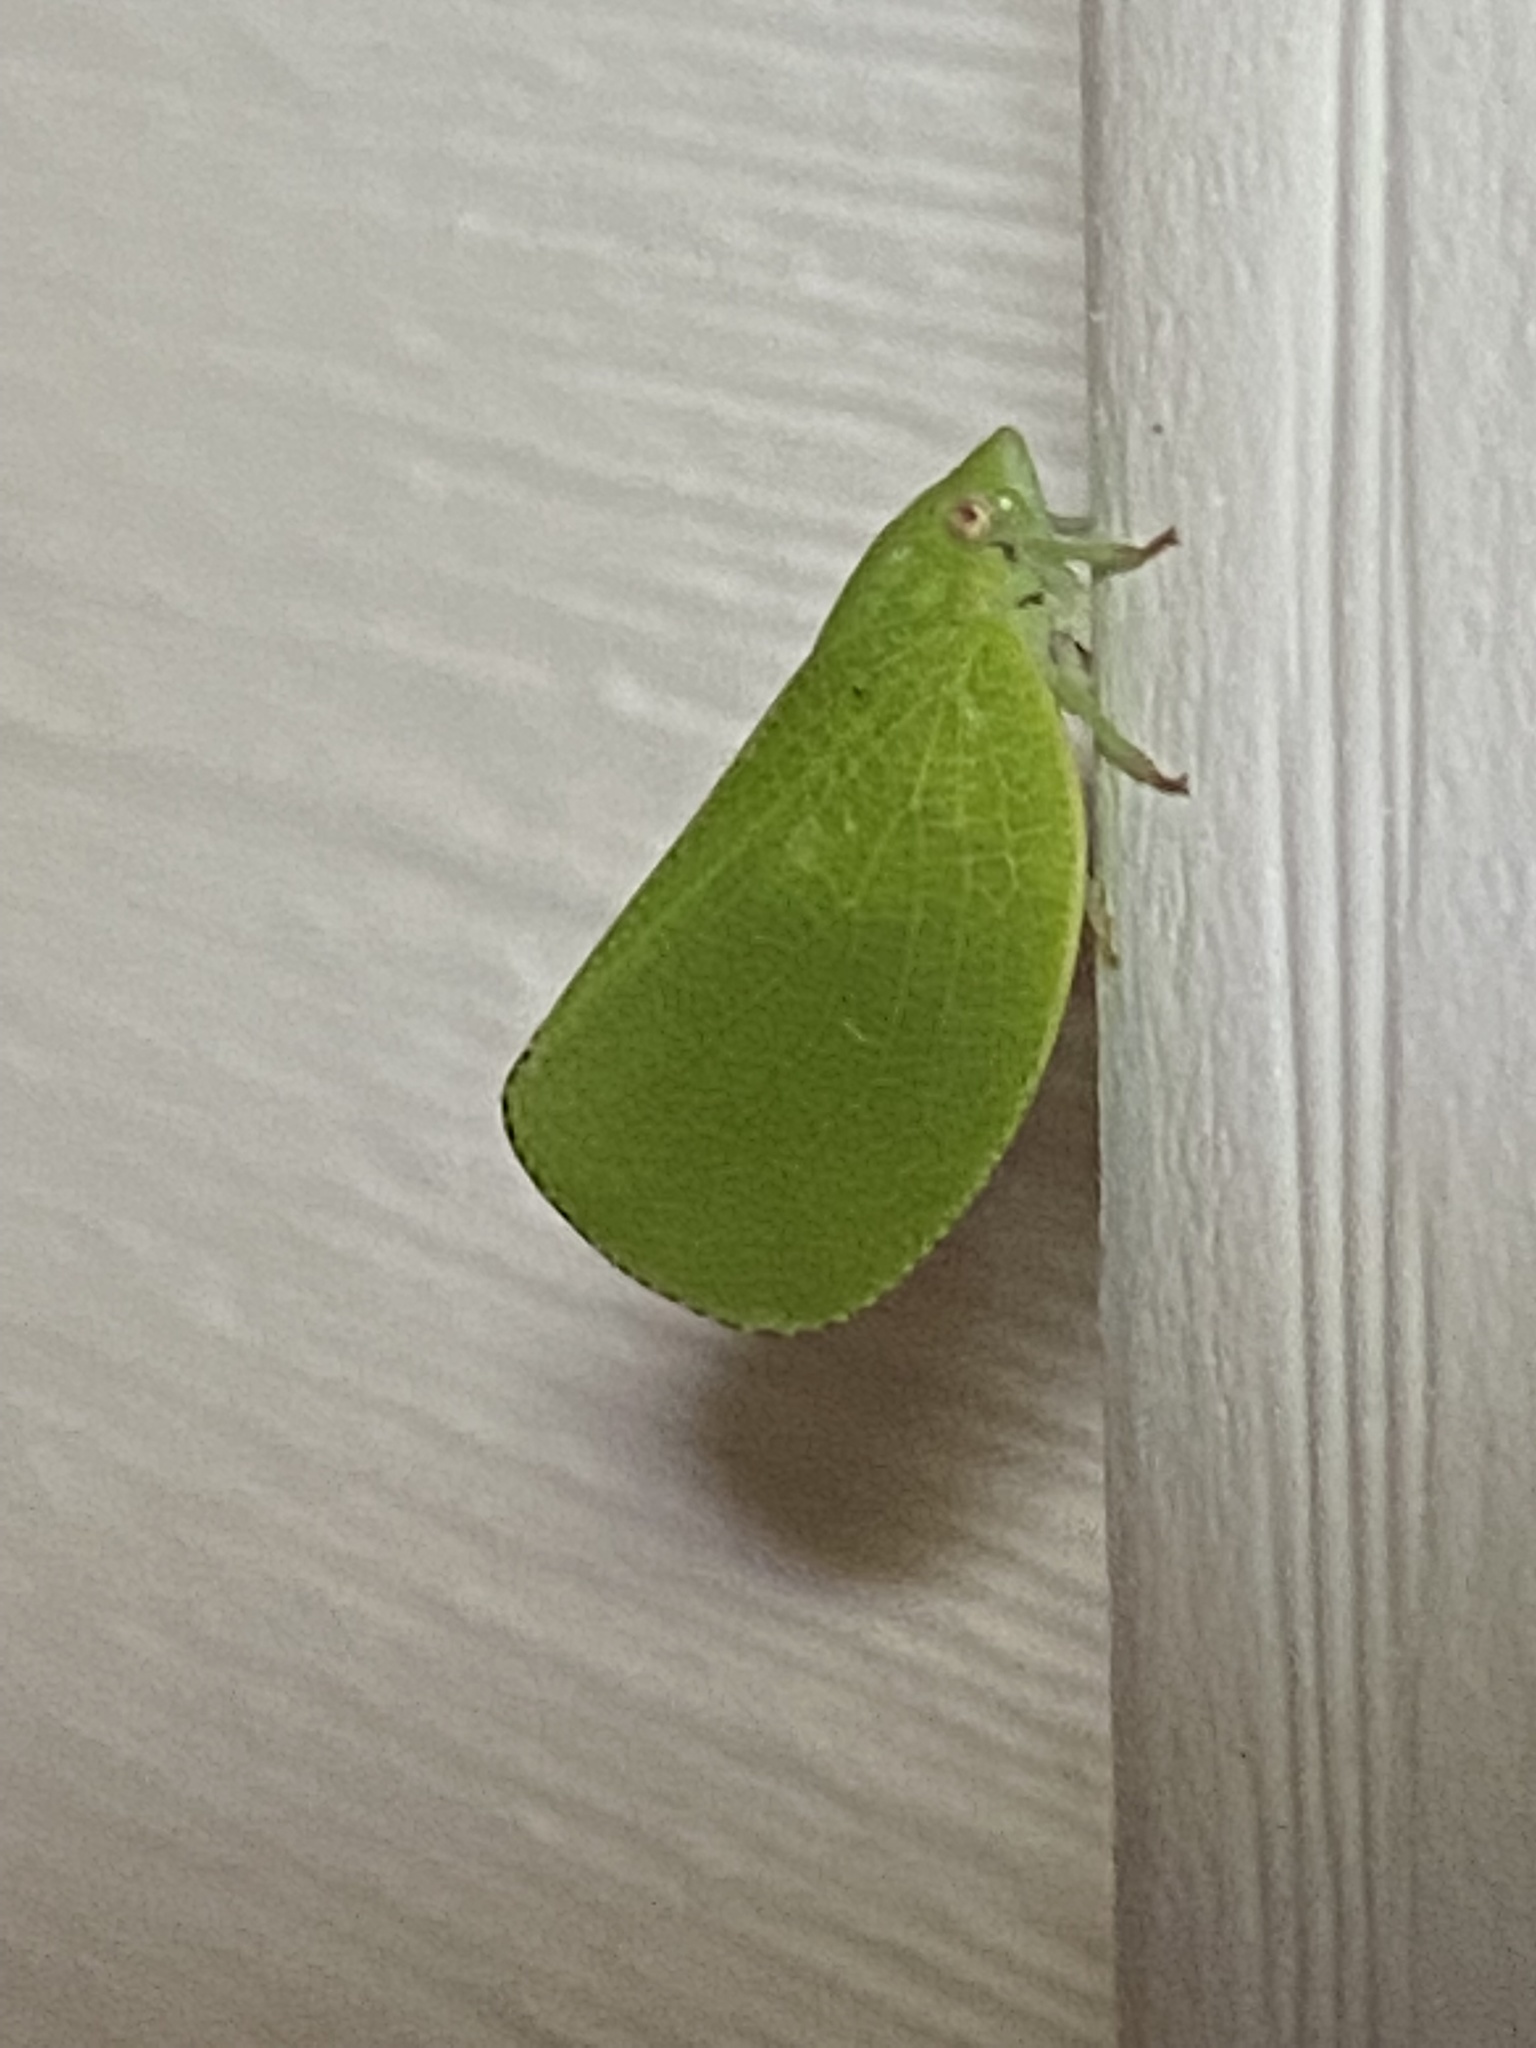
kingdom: Animalia
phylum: Arthropoda
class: Insecta
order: Hemiptera
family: Acanaloniidae
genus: Acanalonia
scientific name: Acanalonia conica
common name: Green cone-headed planthopper
